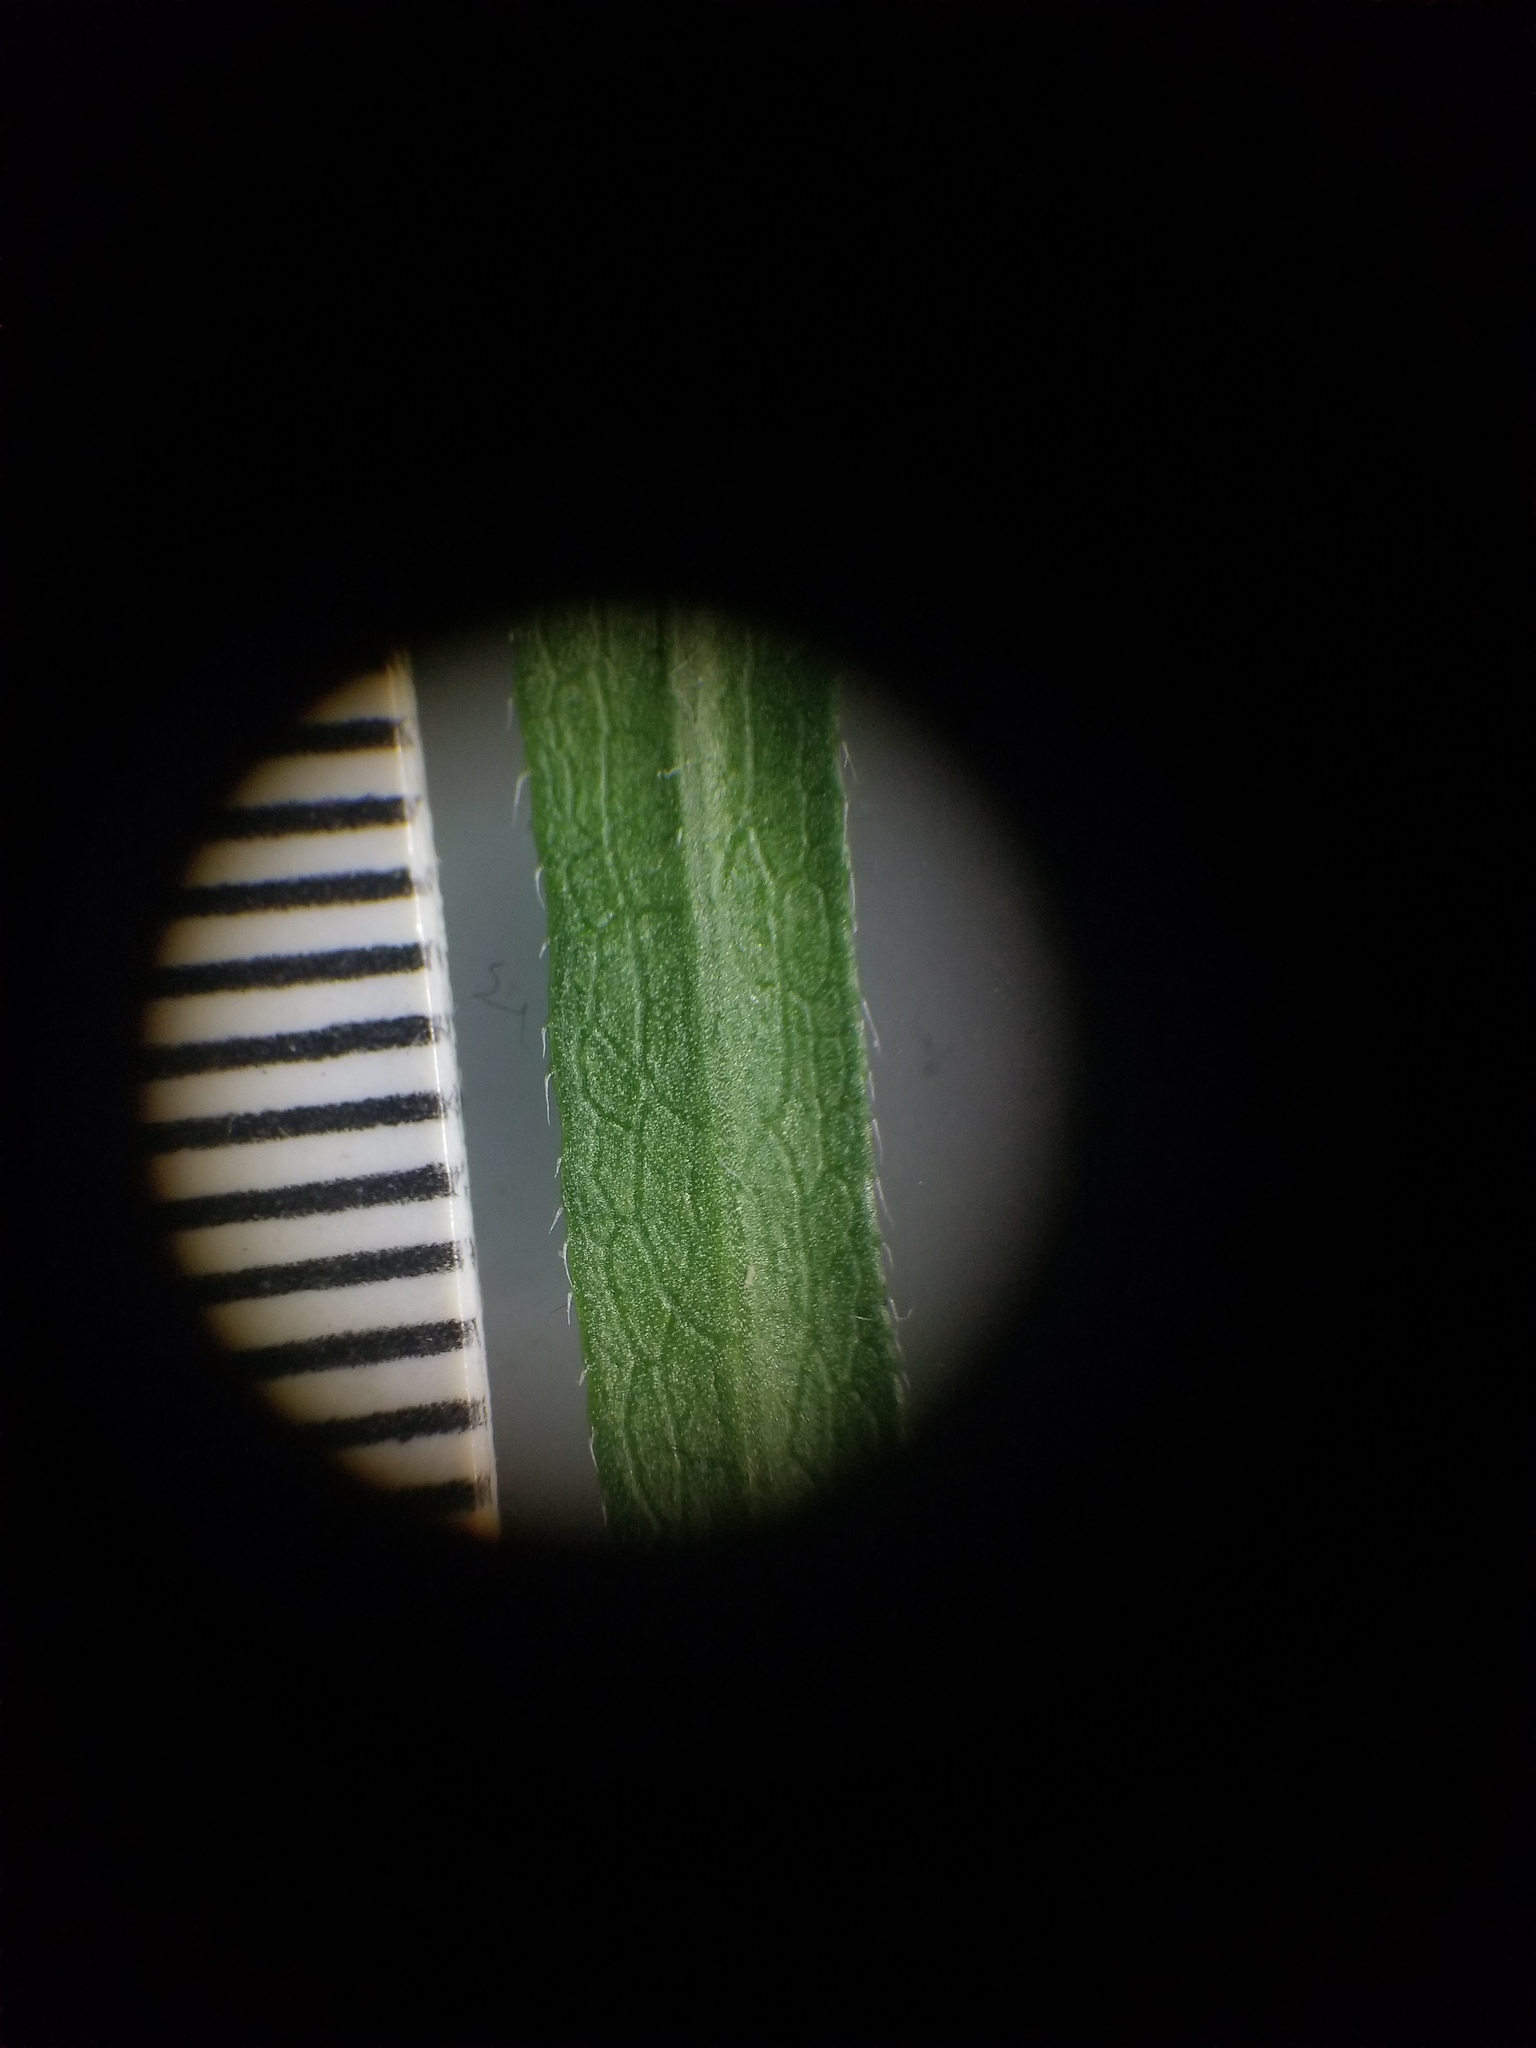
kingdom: Plantae
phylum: Tracheophyta
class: Magnoliopsida
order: Asterales
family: Asteraceae
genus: Symphyotrichum
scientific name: Symphyotrichum pilosum
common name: Awl aster
